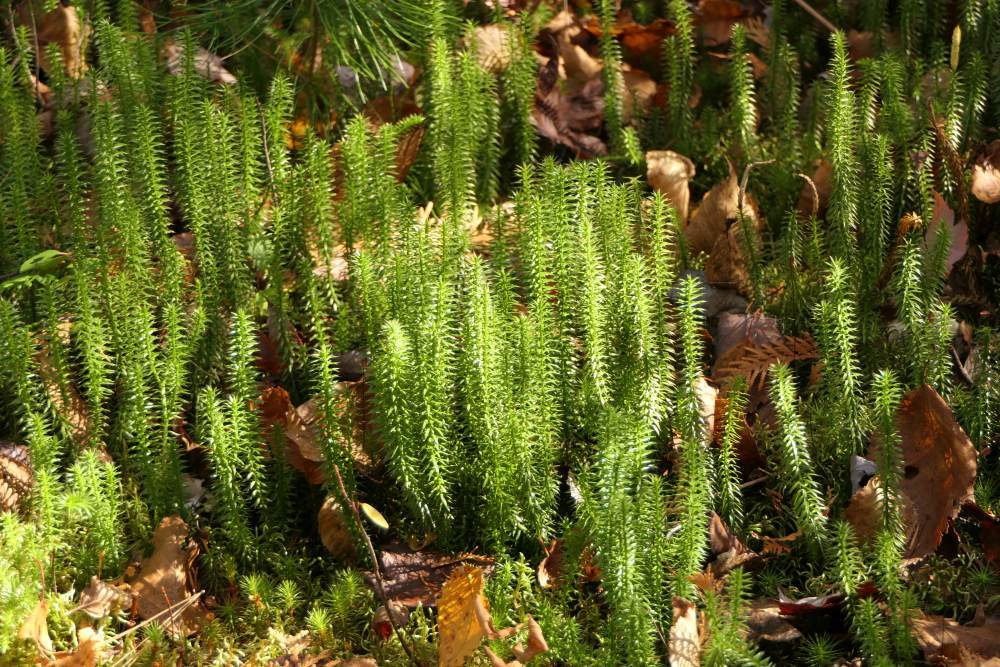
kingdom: Plantae
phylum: Tracheophyta
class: Lycopodiopsida
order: Lycopodiales
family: Lycopodiaceae
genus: Spinulum
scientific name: Spinulum annotinum
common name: Interrupted club-moss
